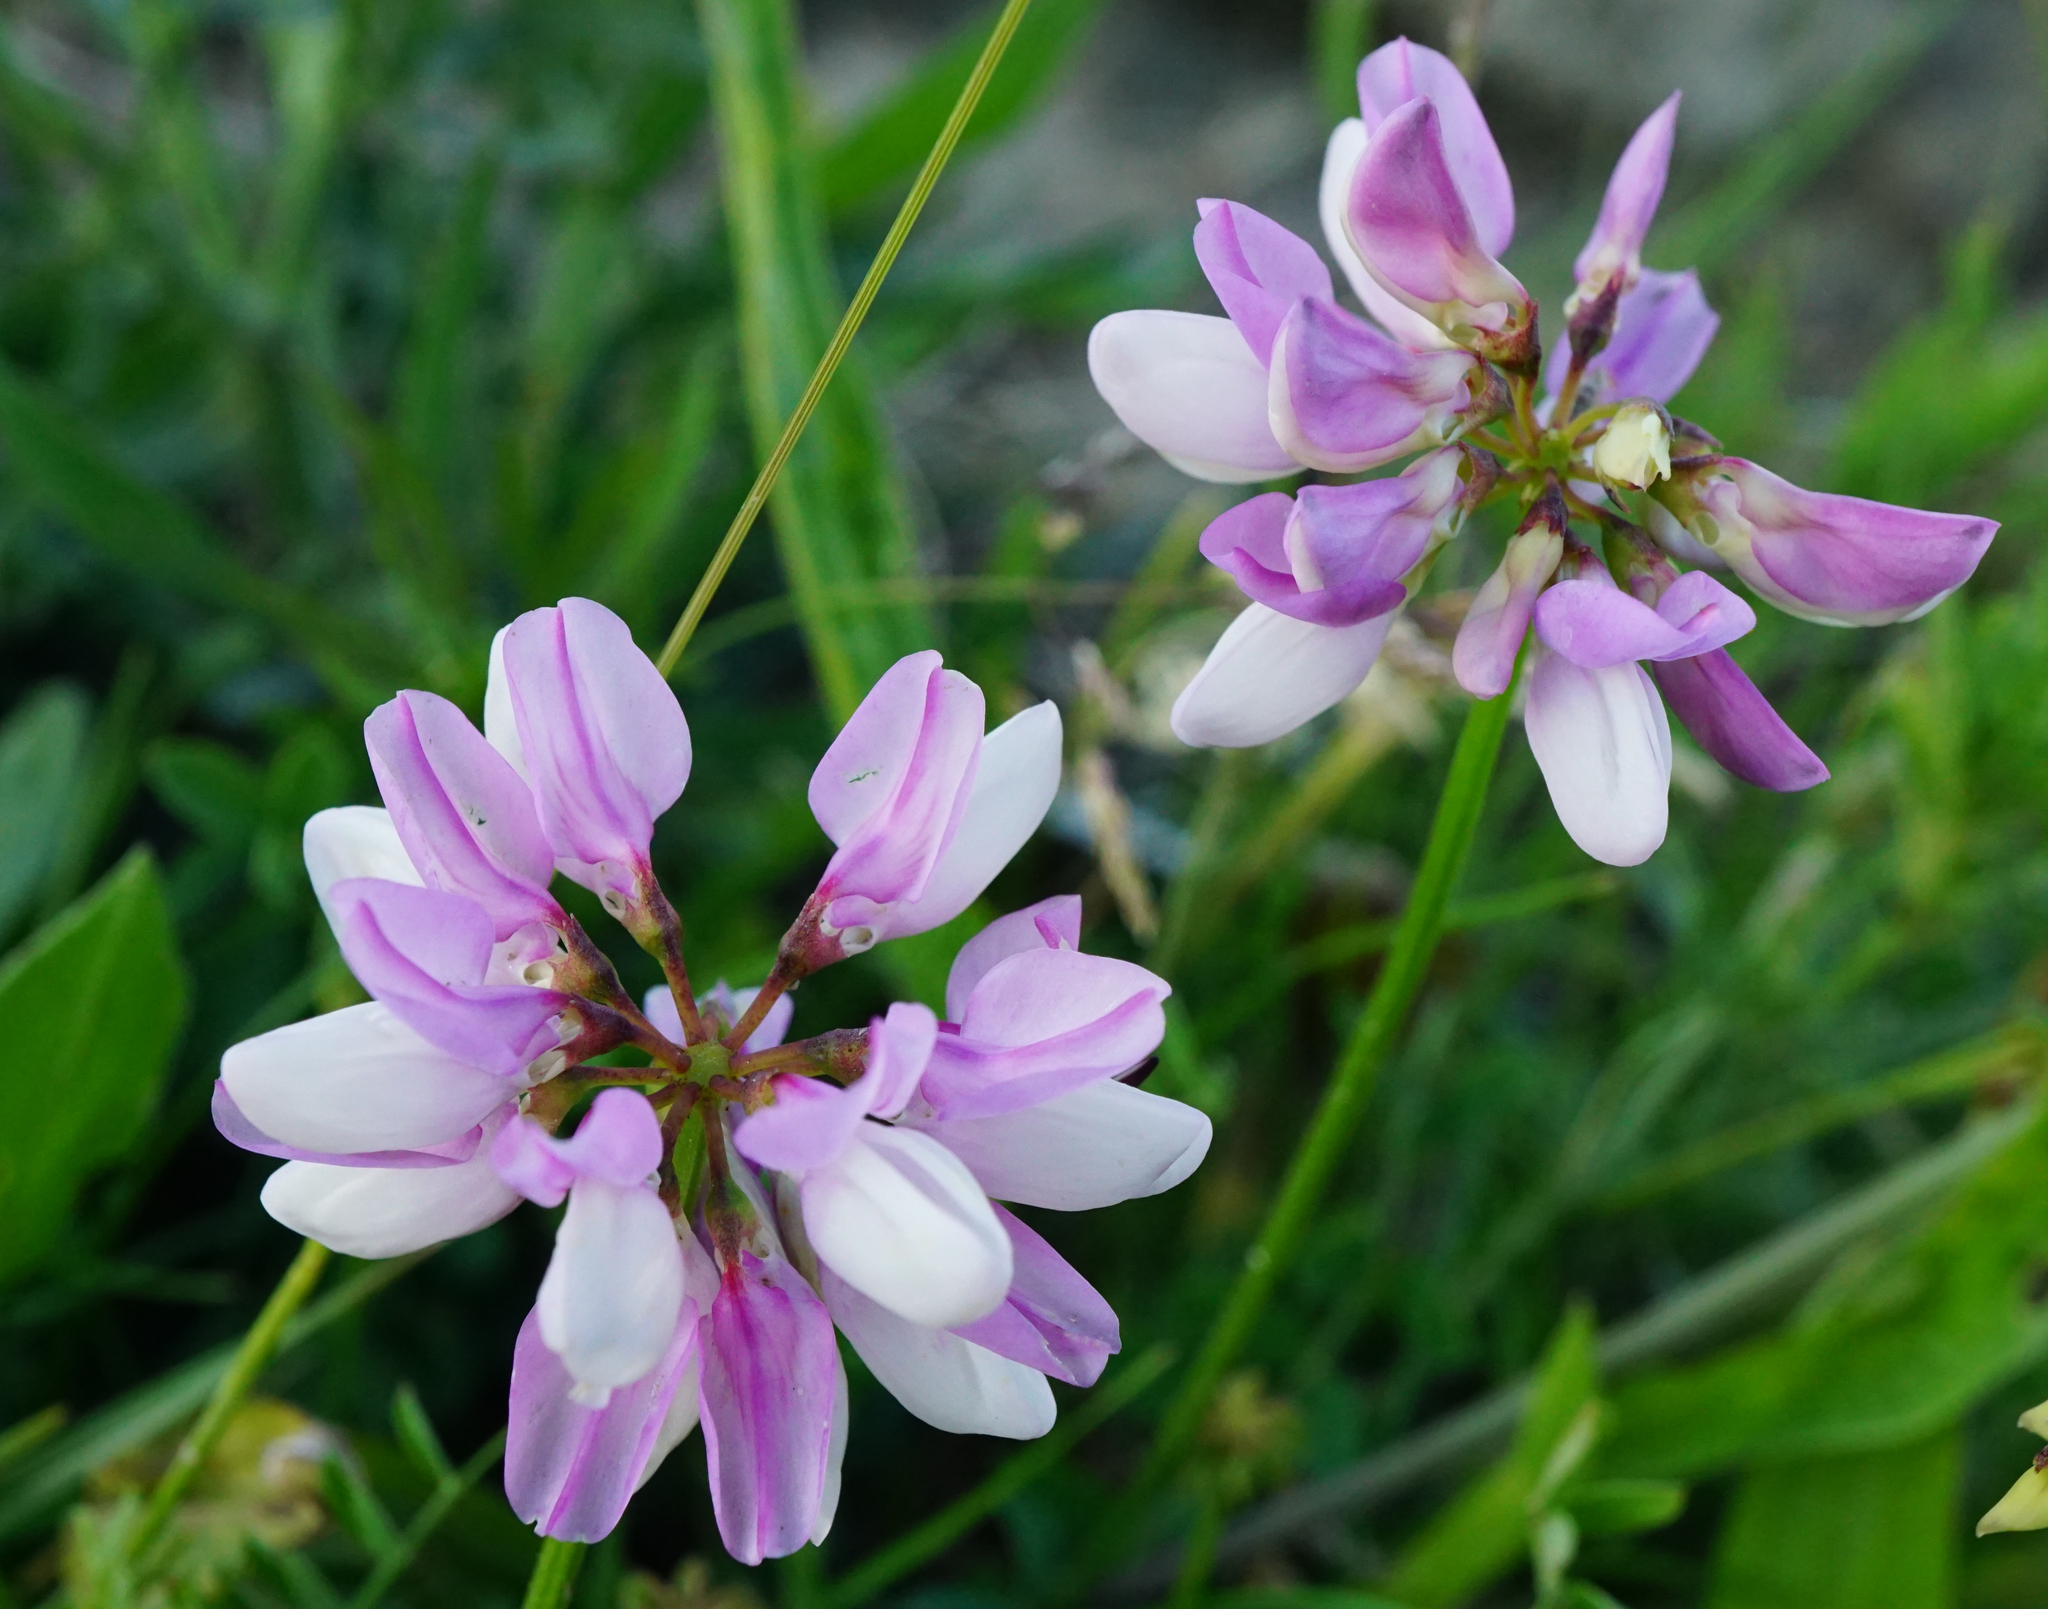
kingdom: Plantae
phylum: Tracheophyta
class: Magnoliopsida
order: Fabales
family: Fabaceae
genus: Coronilla
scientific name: Coronilla varia
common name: Crownvetch
